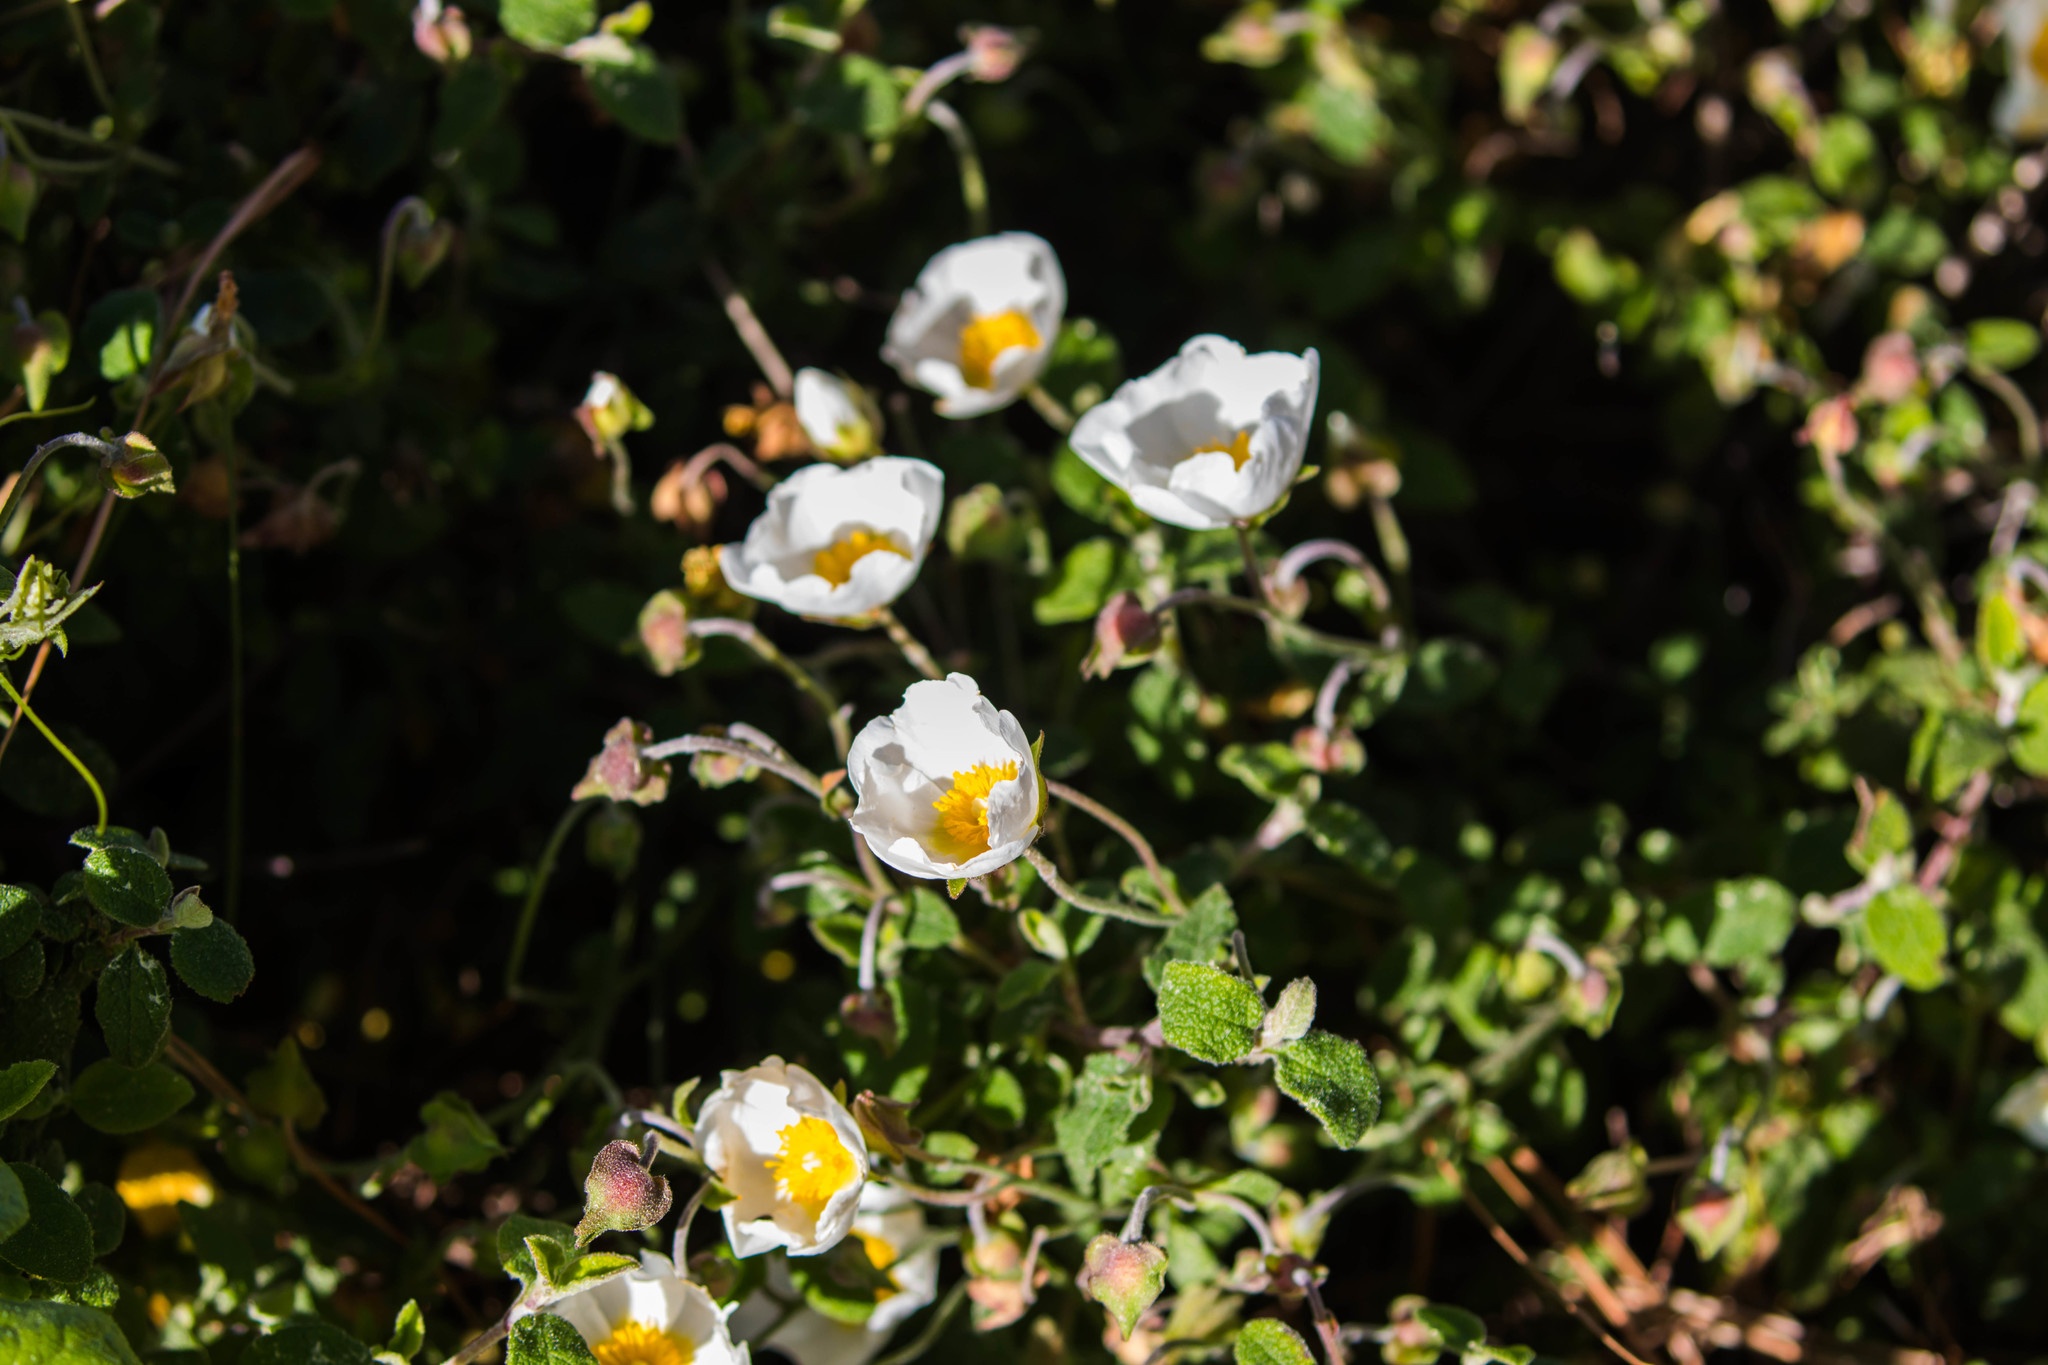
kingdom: Plantae
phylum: Tracheophyta
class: Magnoliopsida
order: Malvales
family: Cistaceae
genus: Cistus
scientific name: Cistus salviifolius
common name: Salvia cistus
